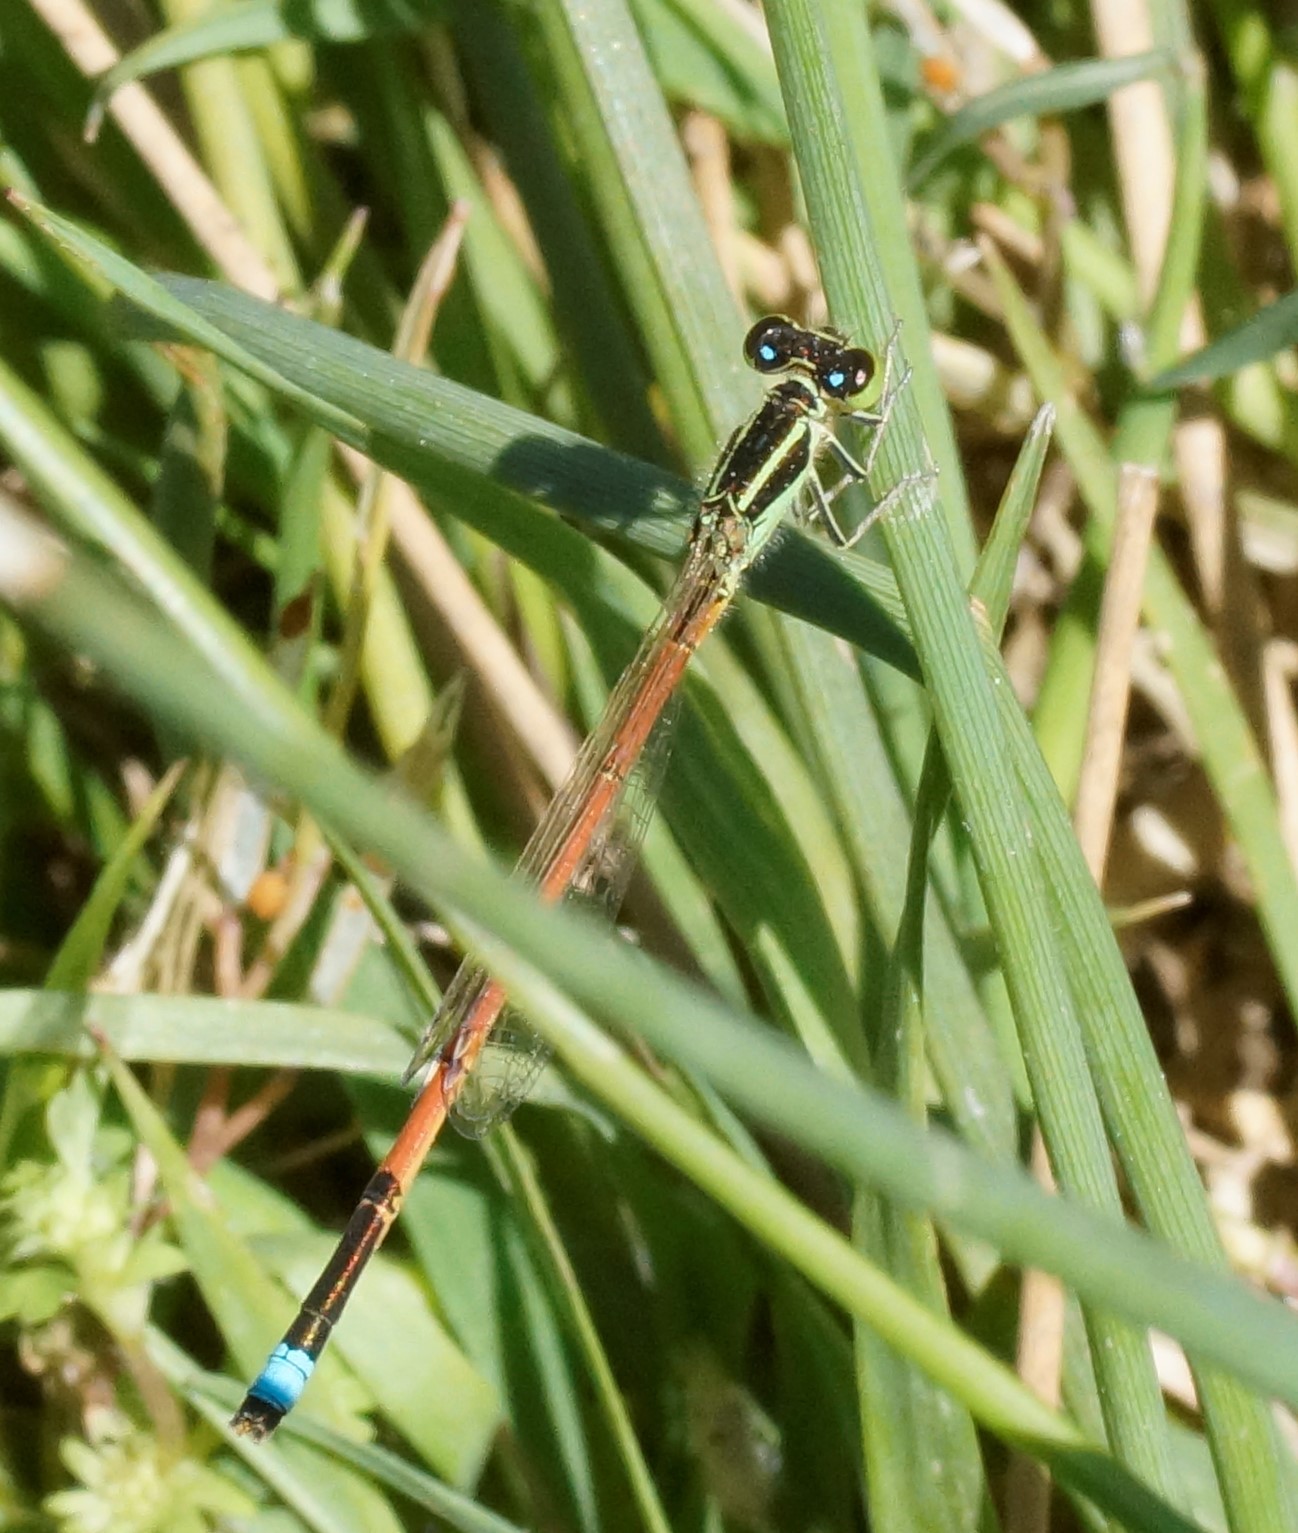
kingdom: Animalia
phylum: Arthropoda
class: Insecta
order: Odonata
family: Coenagrionidae
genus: Ischnura
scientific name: Ischnura aurora
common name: Gossamer damselfly
